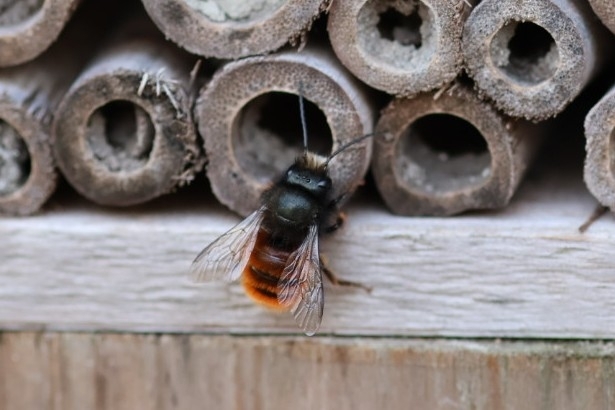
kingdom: Animalia
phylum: Arthropoda
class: Insecta
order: Hymenoptera
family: Megachilidae
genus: Osmia
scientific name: Osmia cornuta
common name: Mason bee
